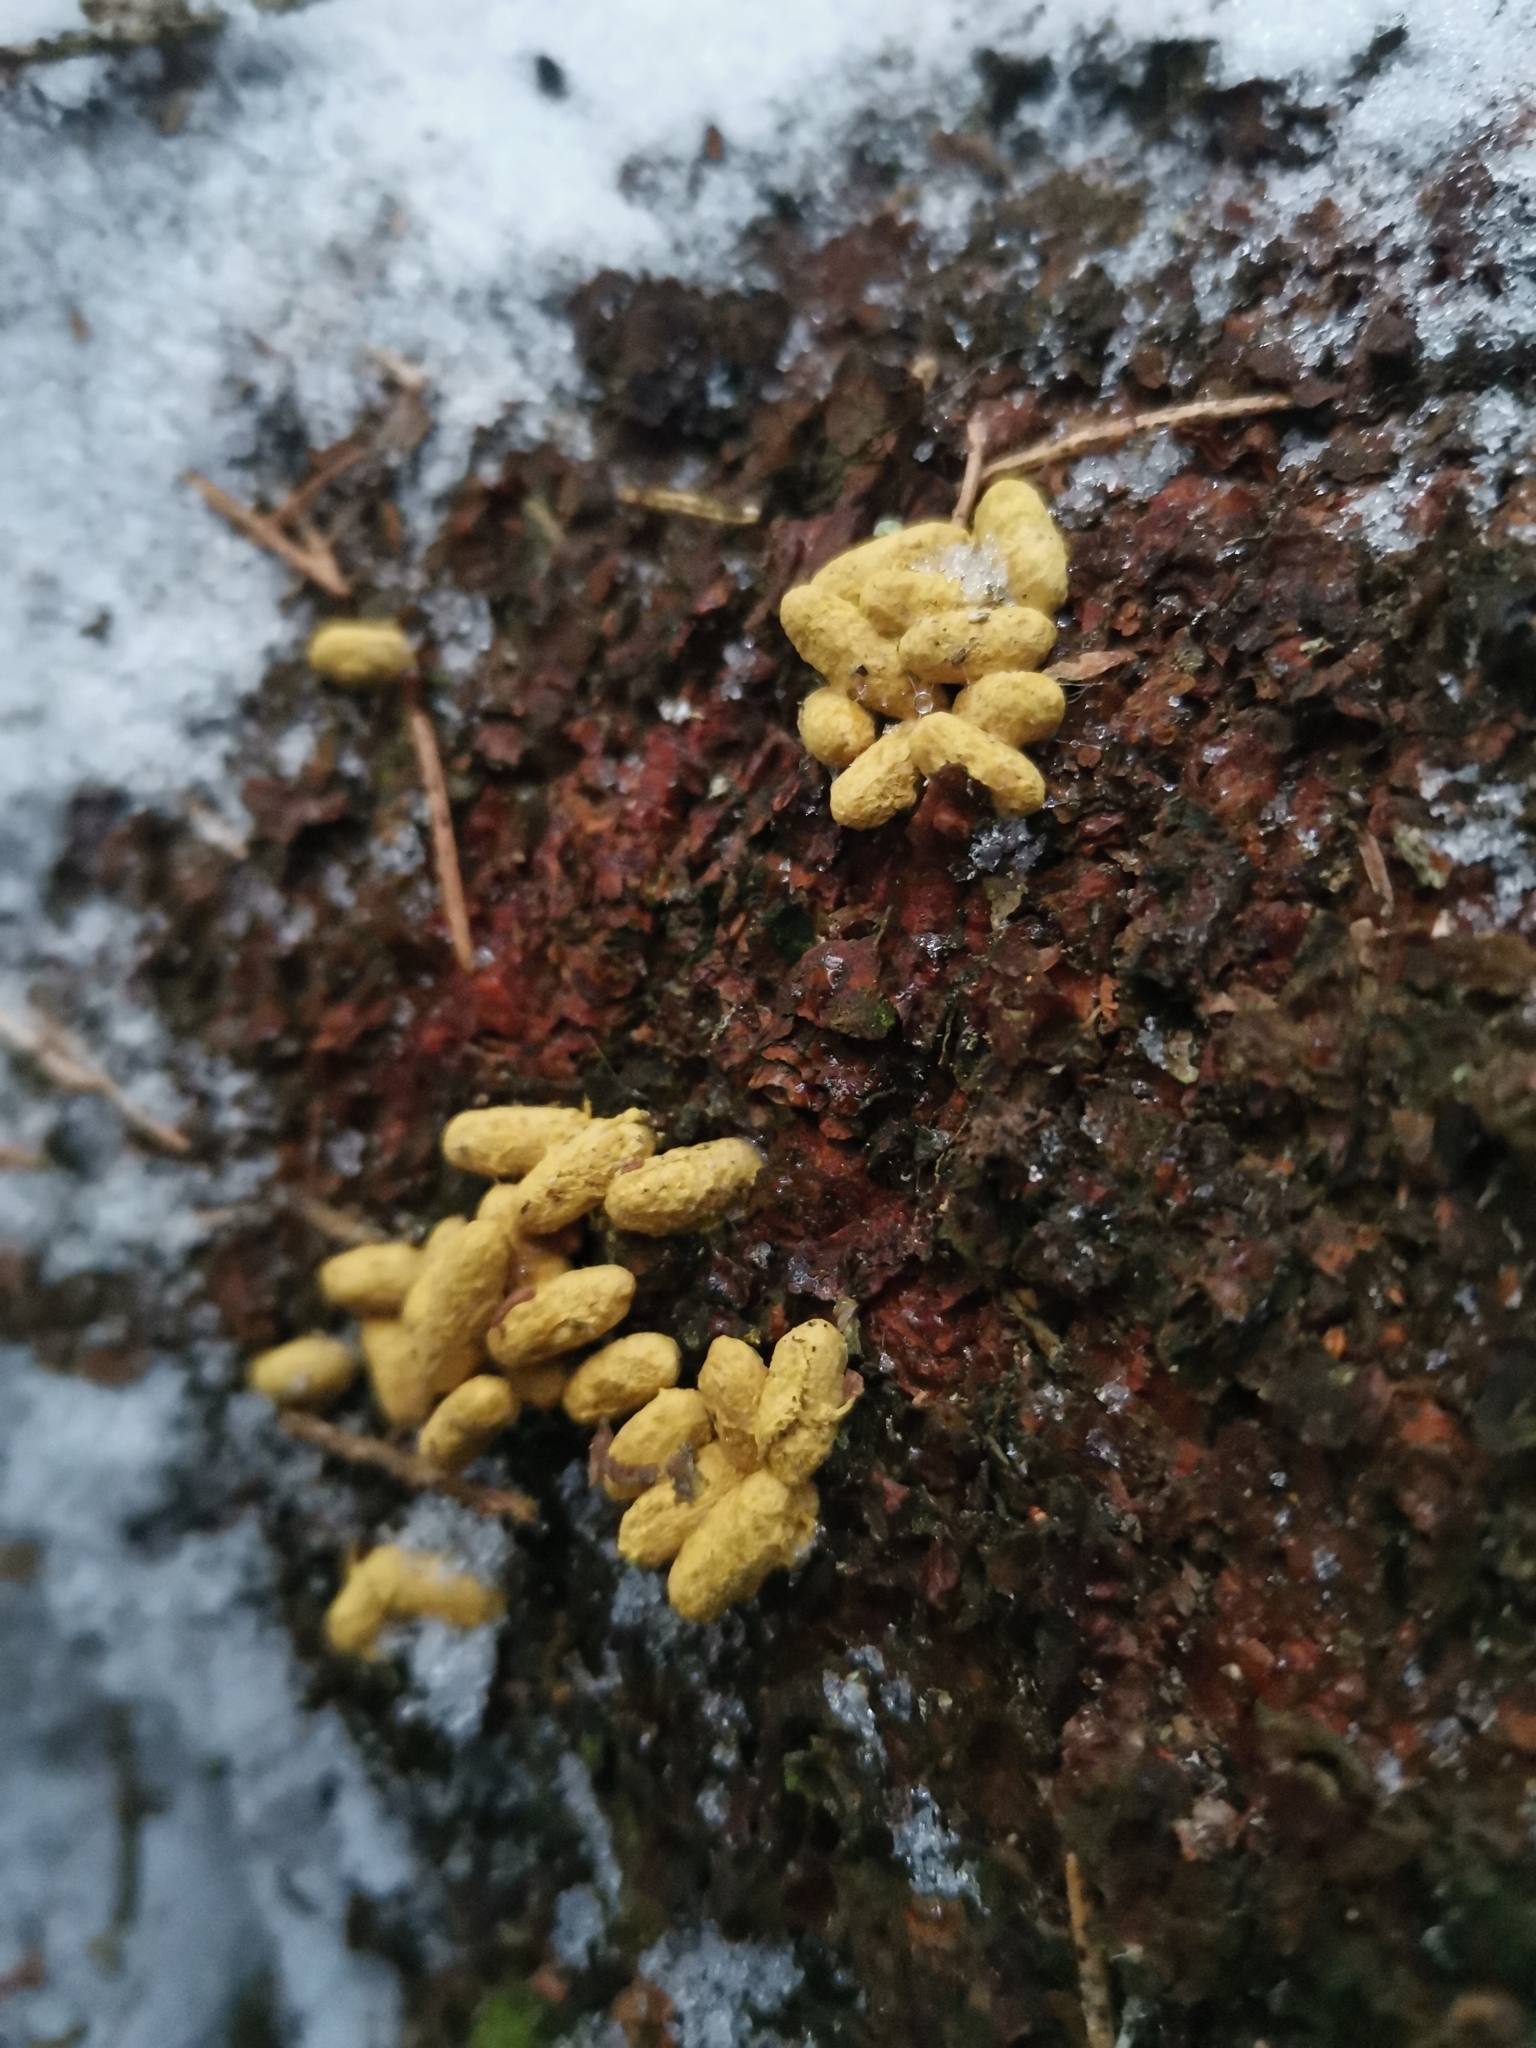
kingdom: Animalia
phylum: Chordata
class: Mammalia
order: Rodentia
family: Sciuridae
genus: Pteromys
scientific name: Pteromys volans
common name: Siberian flying squirrel
